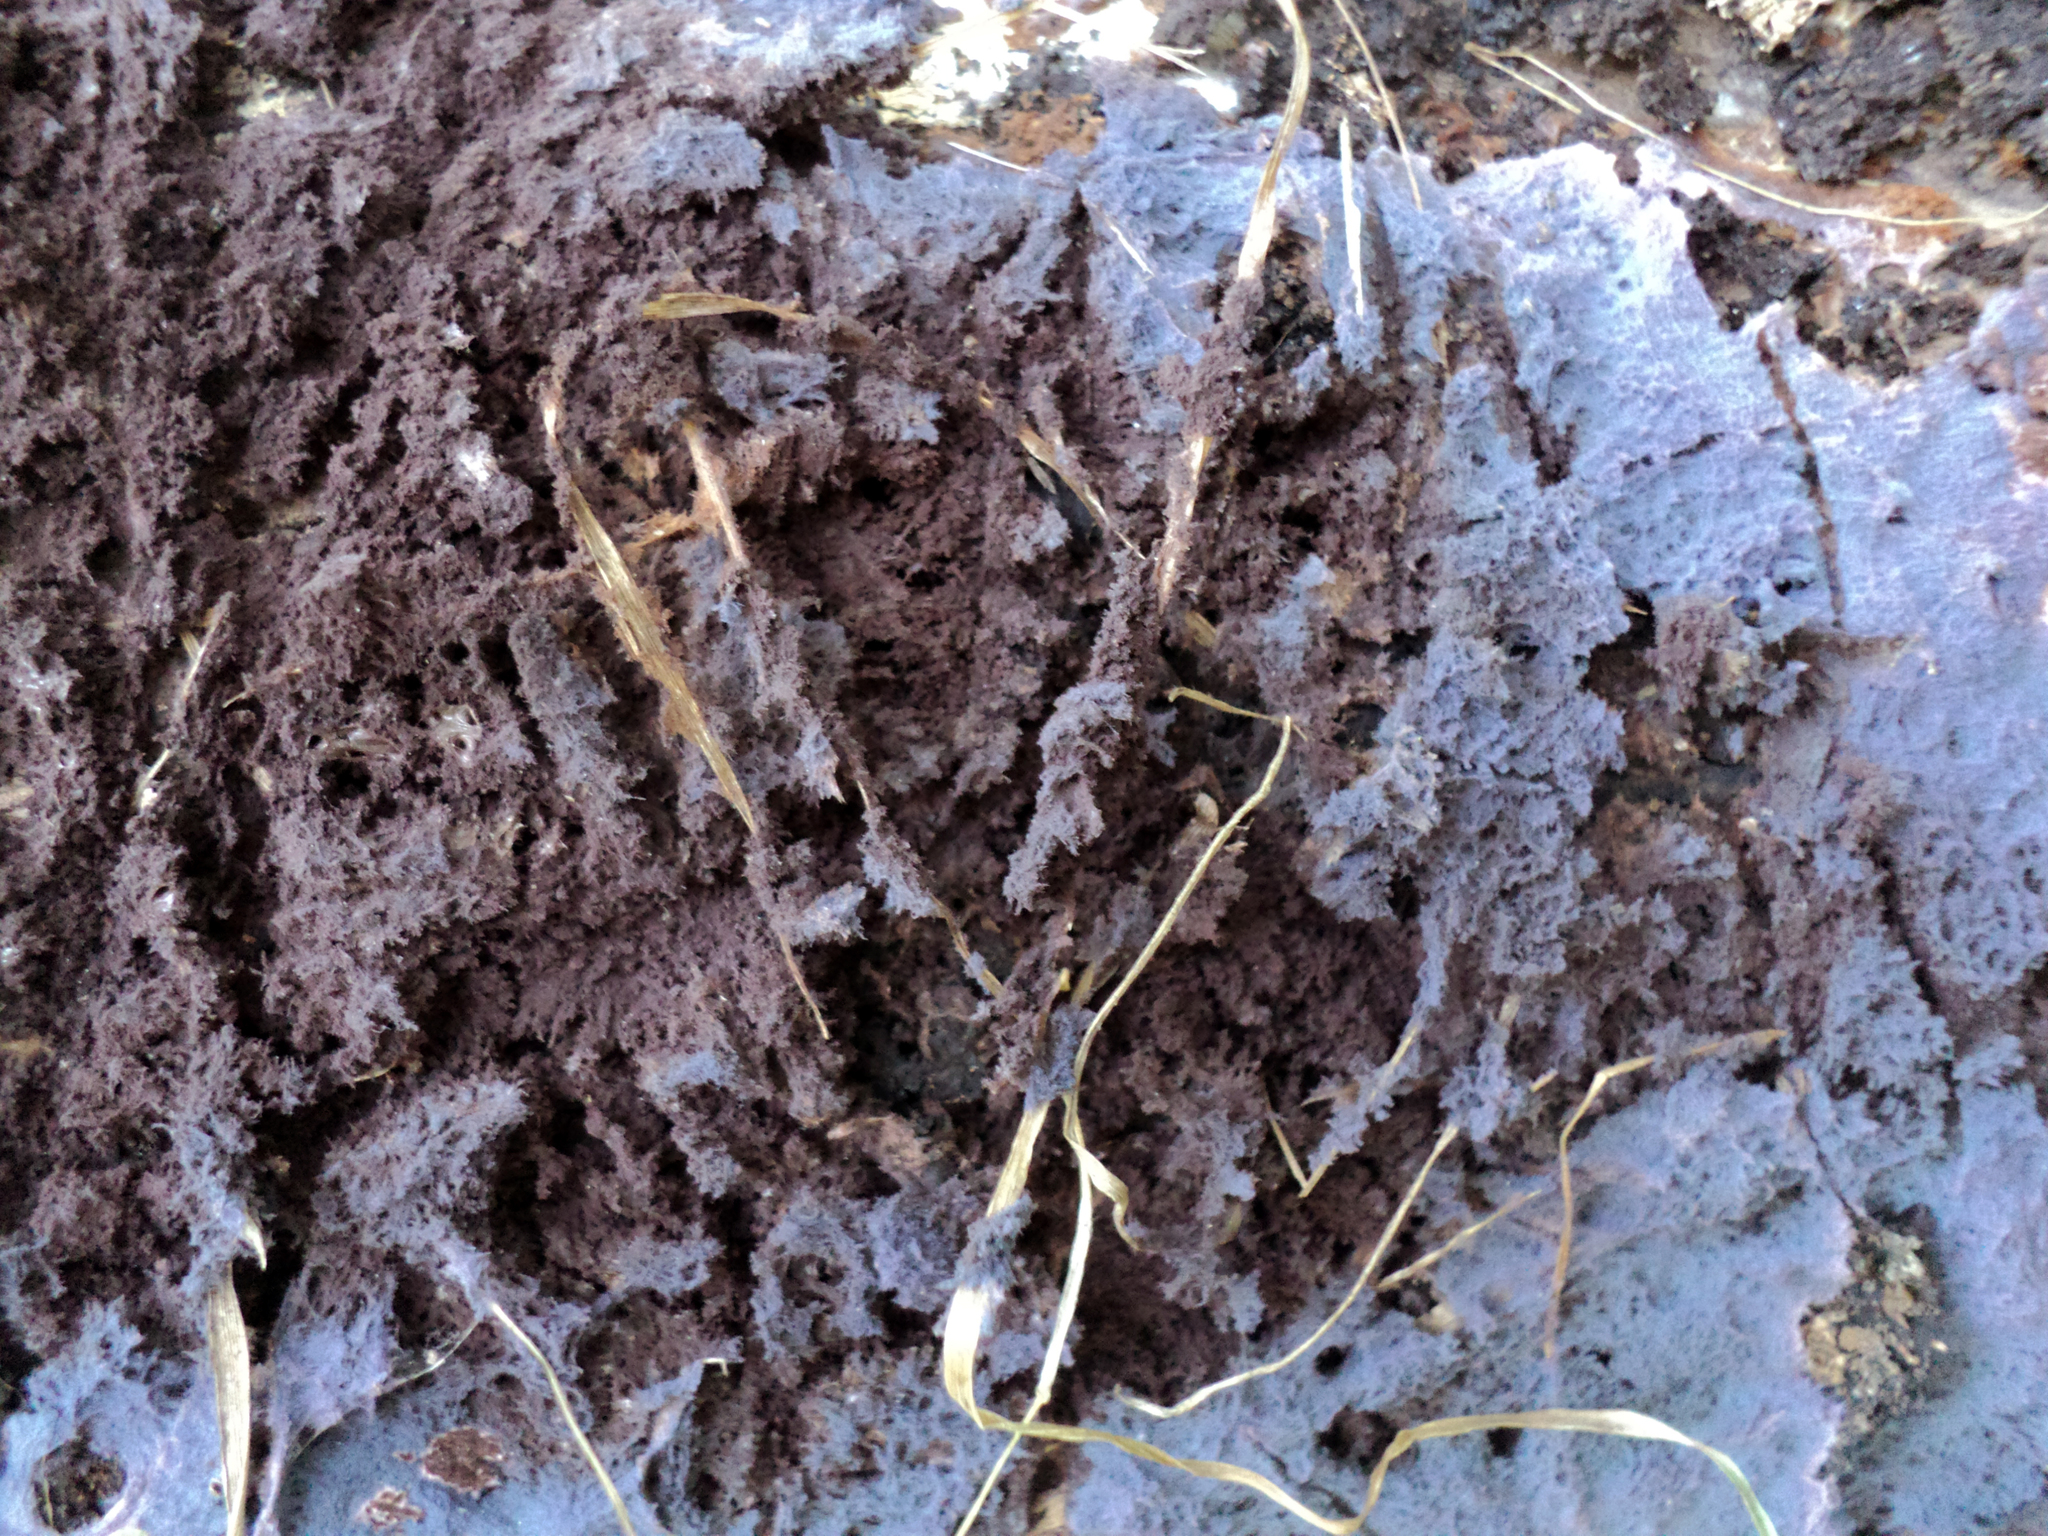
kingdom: Fungi
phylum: Basidiomycota
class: Agaricomycetes
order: Corticiales
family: Punctulariaceae
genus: Punctularia
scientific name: Punctularia atropurpurascens
